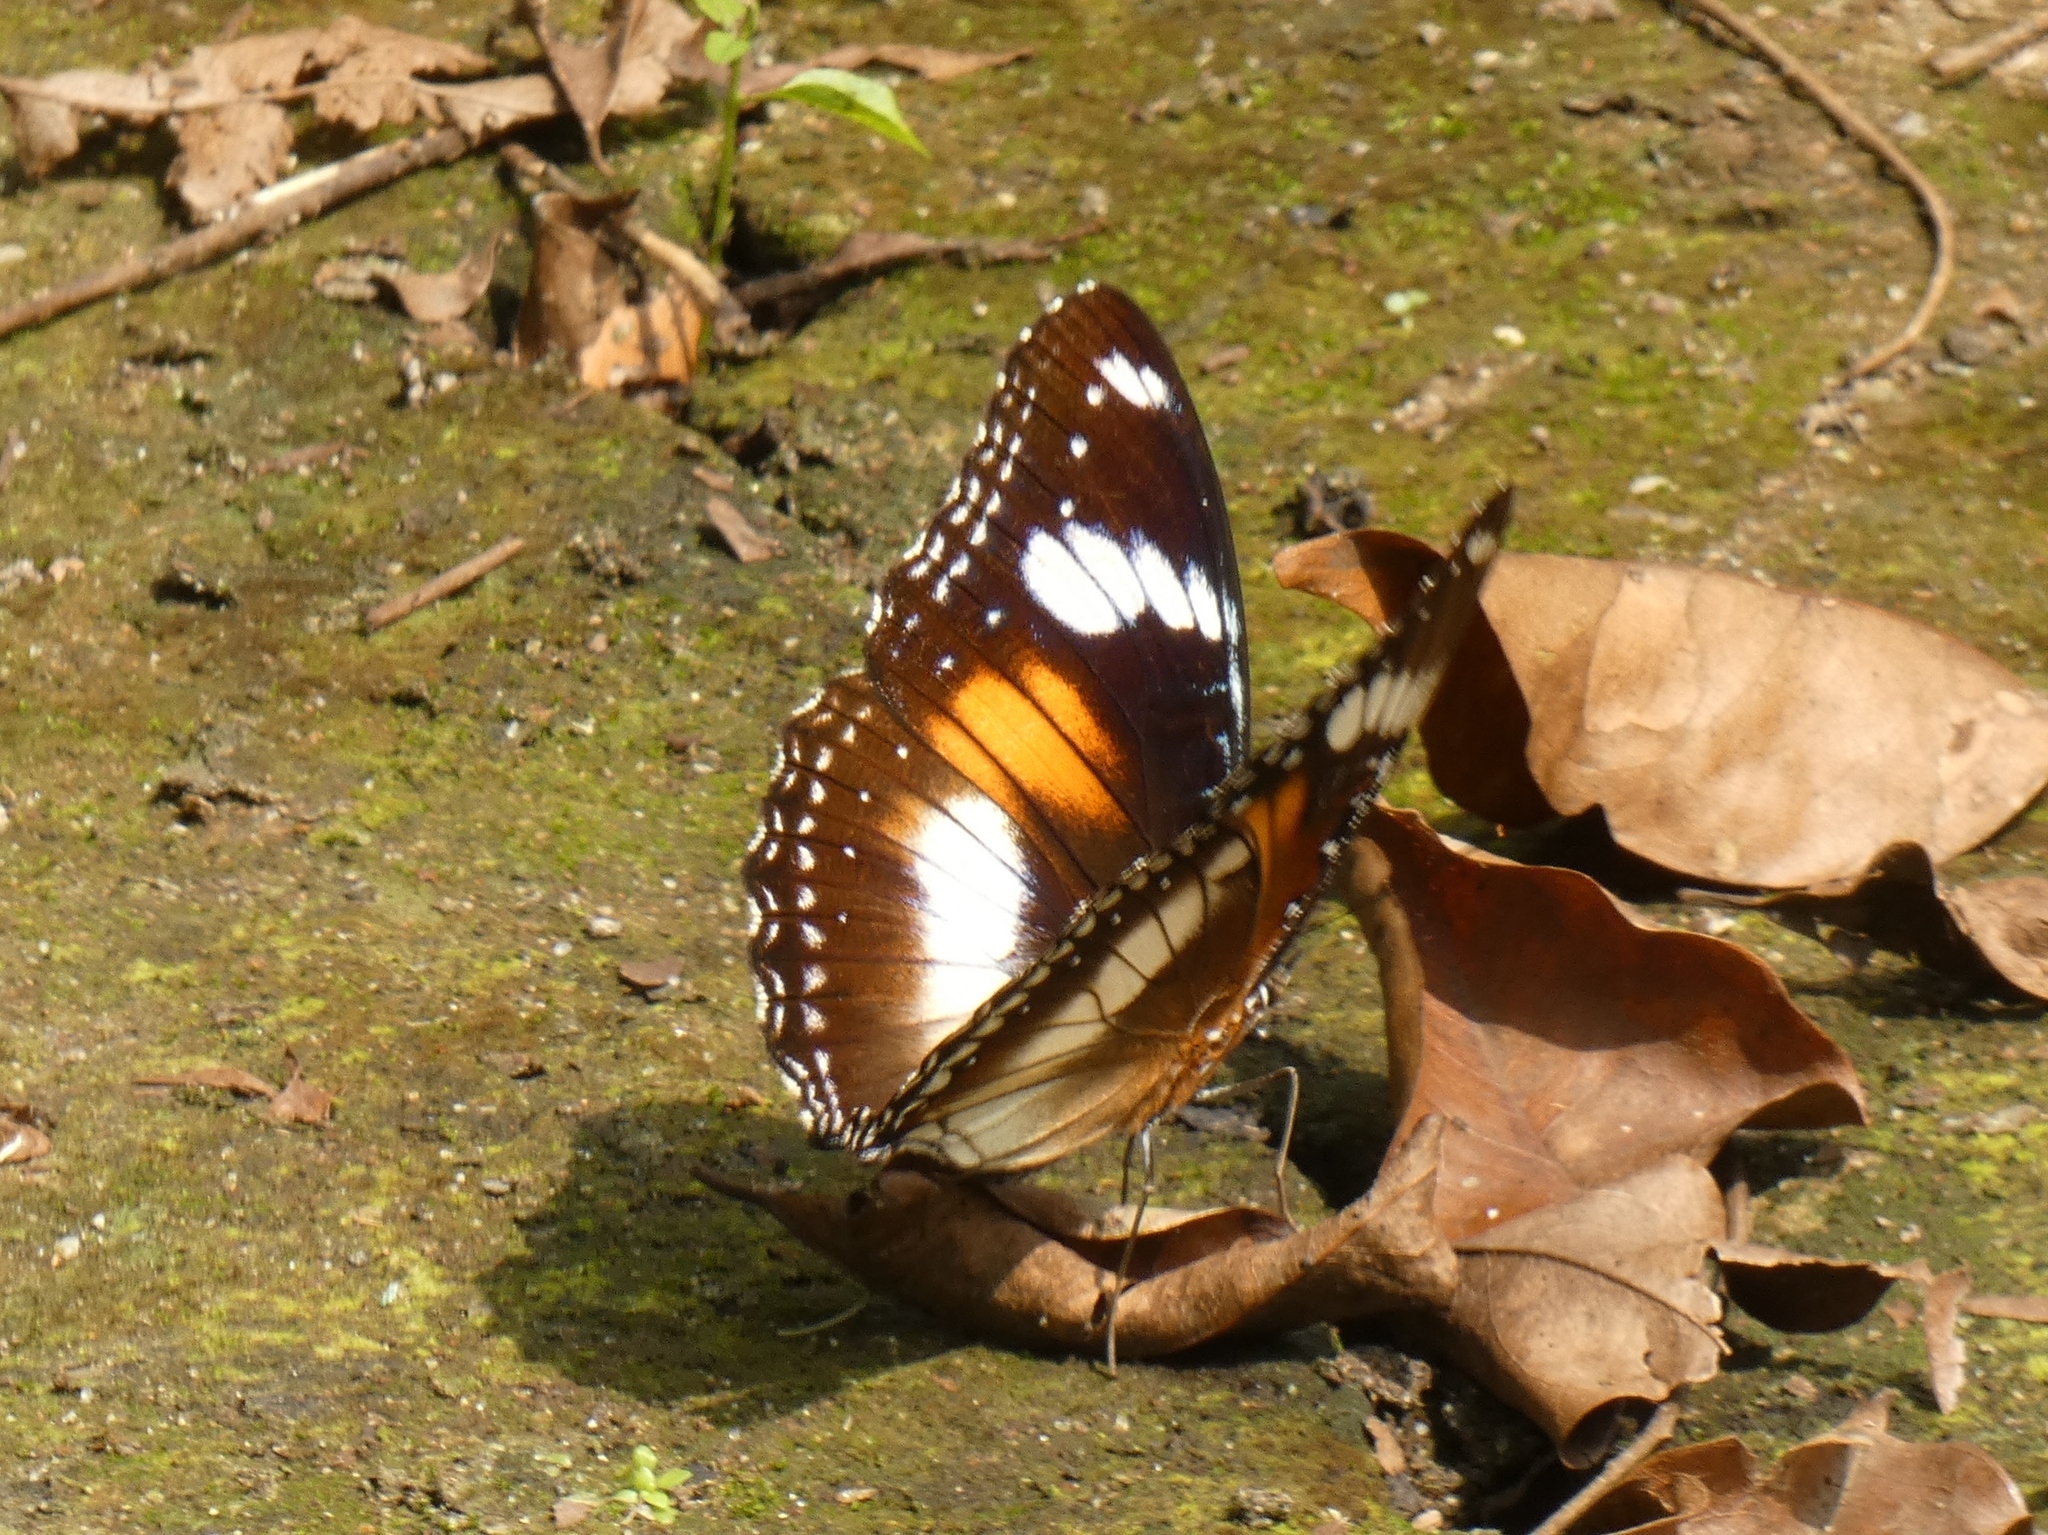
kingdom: Animalia
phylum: Arthropoda
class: Insecta
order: Lepidoptera
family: Nymphalidae
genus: Hypolimnas
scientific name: Hypolimnas bolina
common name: Great eggfly
